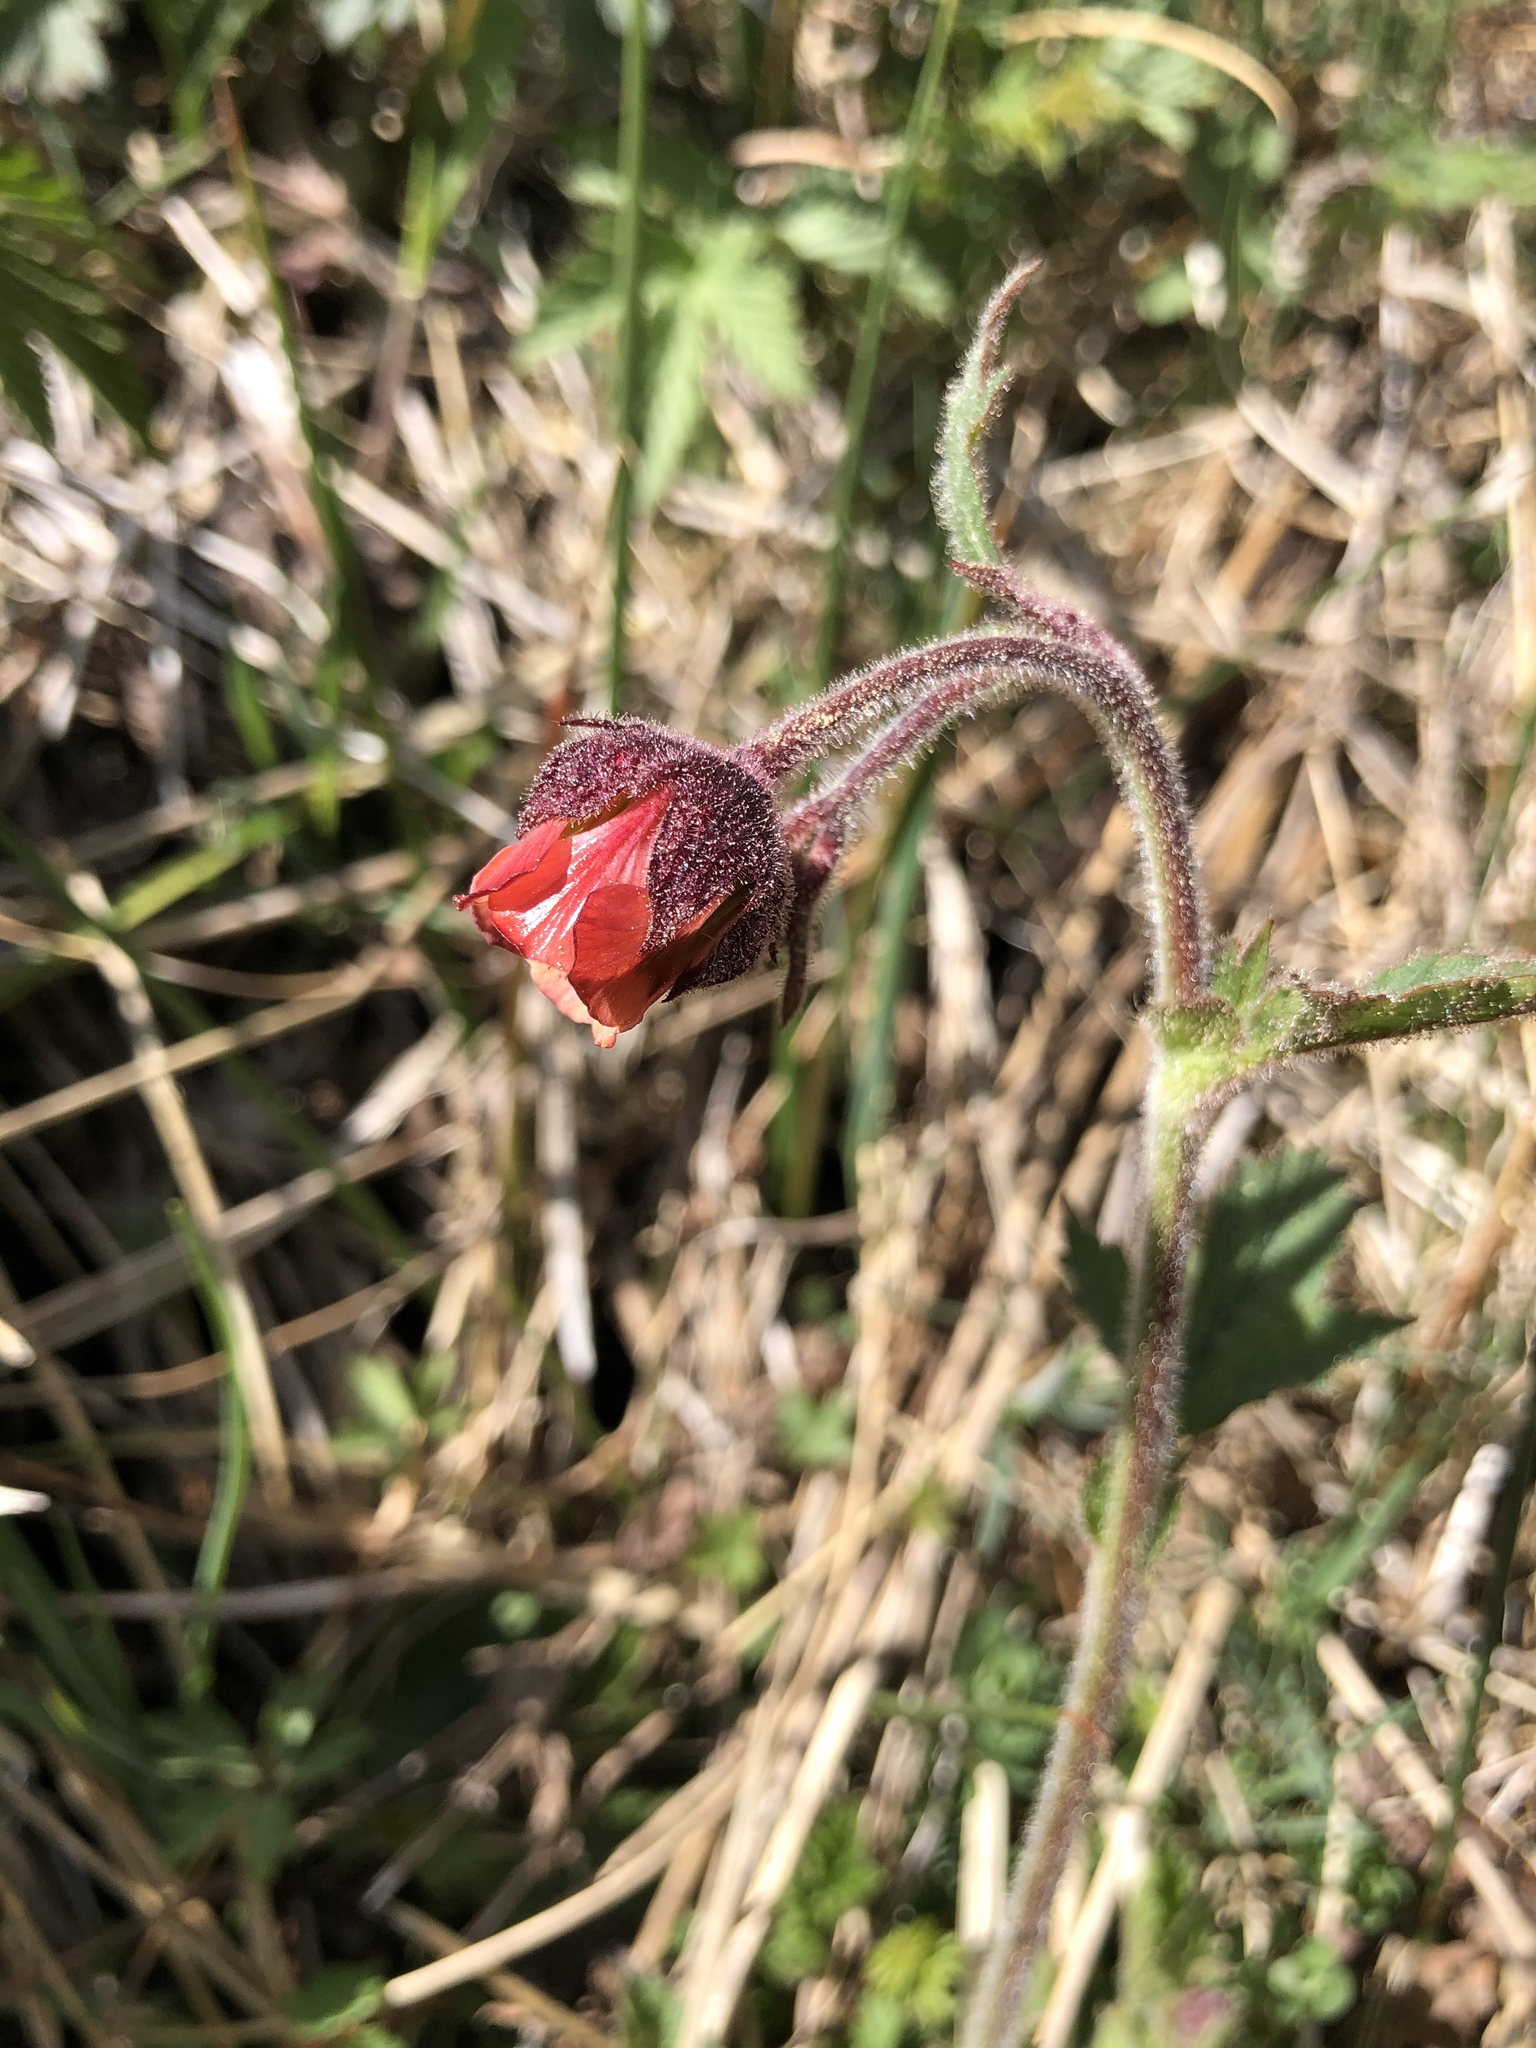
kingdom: Plantae
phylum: Tracheophyta
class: Magnoliopsida
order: Rosales
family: Rosaceae
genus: Geum
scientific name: Geum rivale
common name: Water avens
